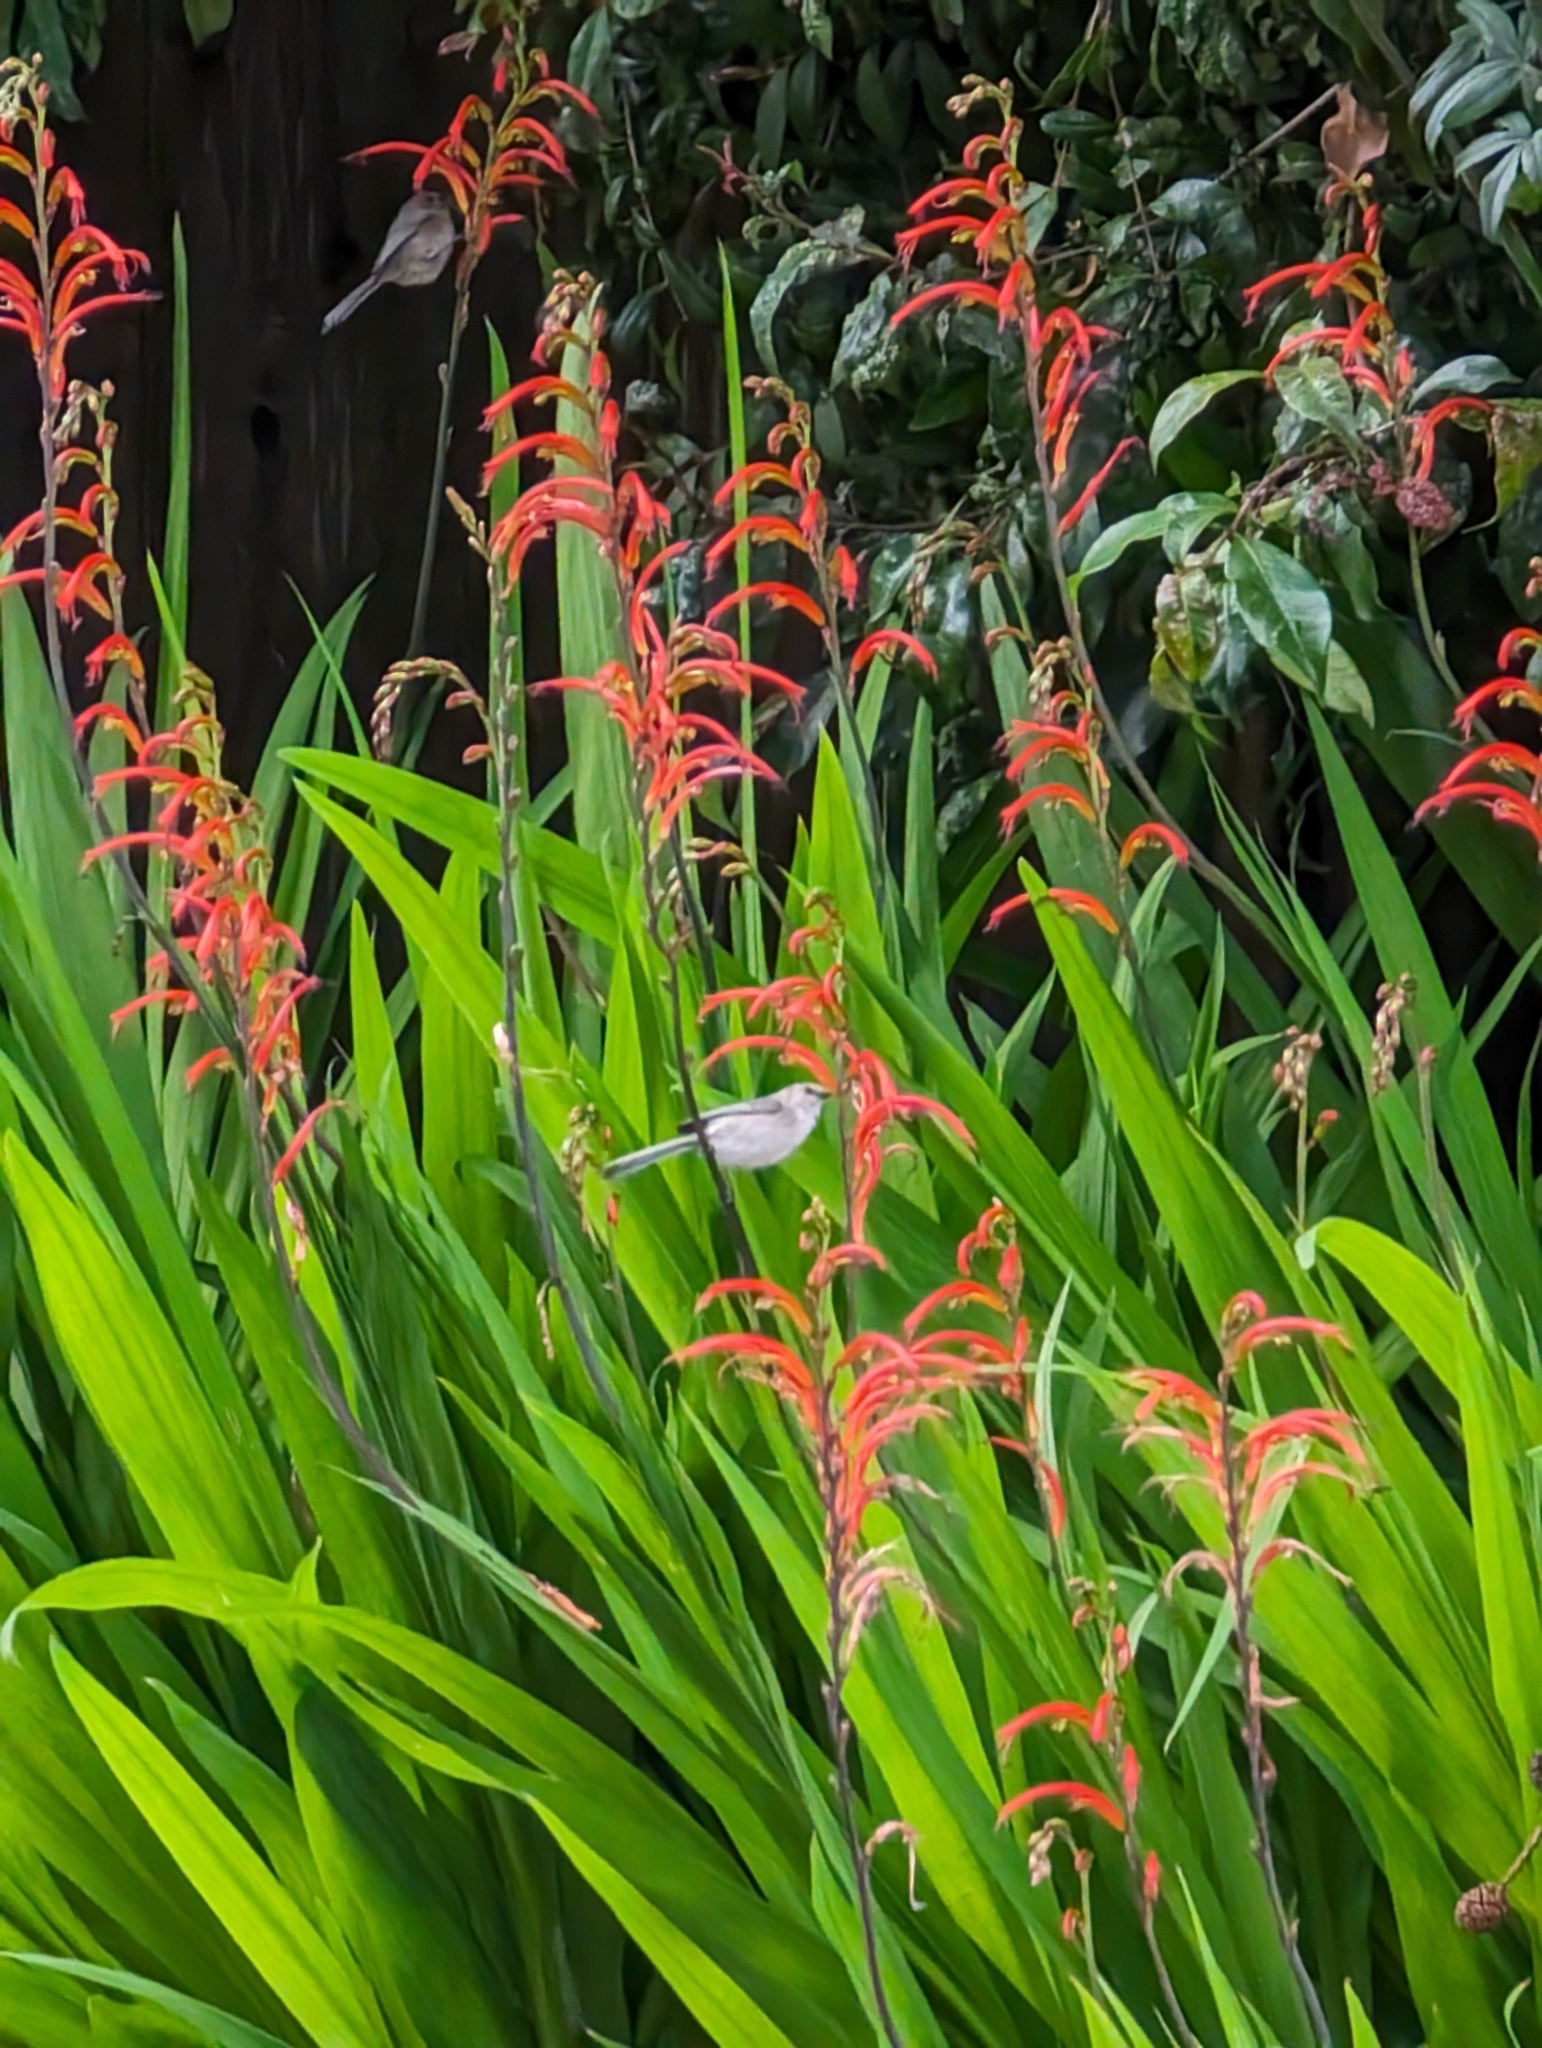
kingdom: Animalia
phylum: Chordata
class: Aves
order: Passeriformes
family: Aegithalidae
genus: Psaltriparus
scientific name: Psaltriparus minimus
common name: American bushtit
